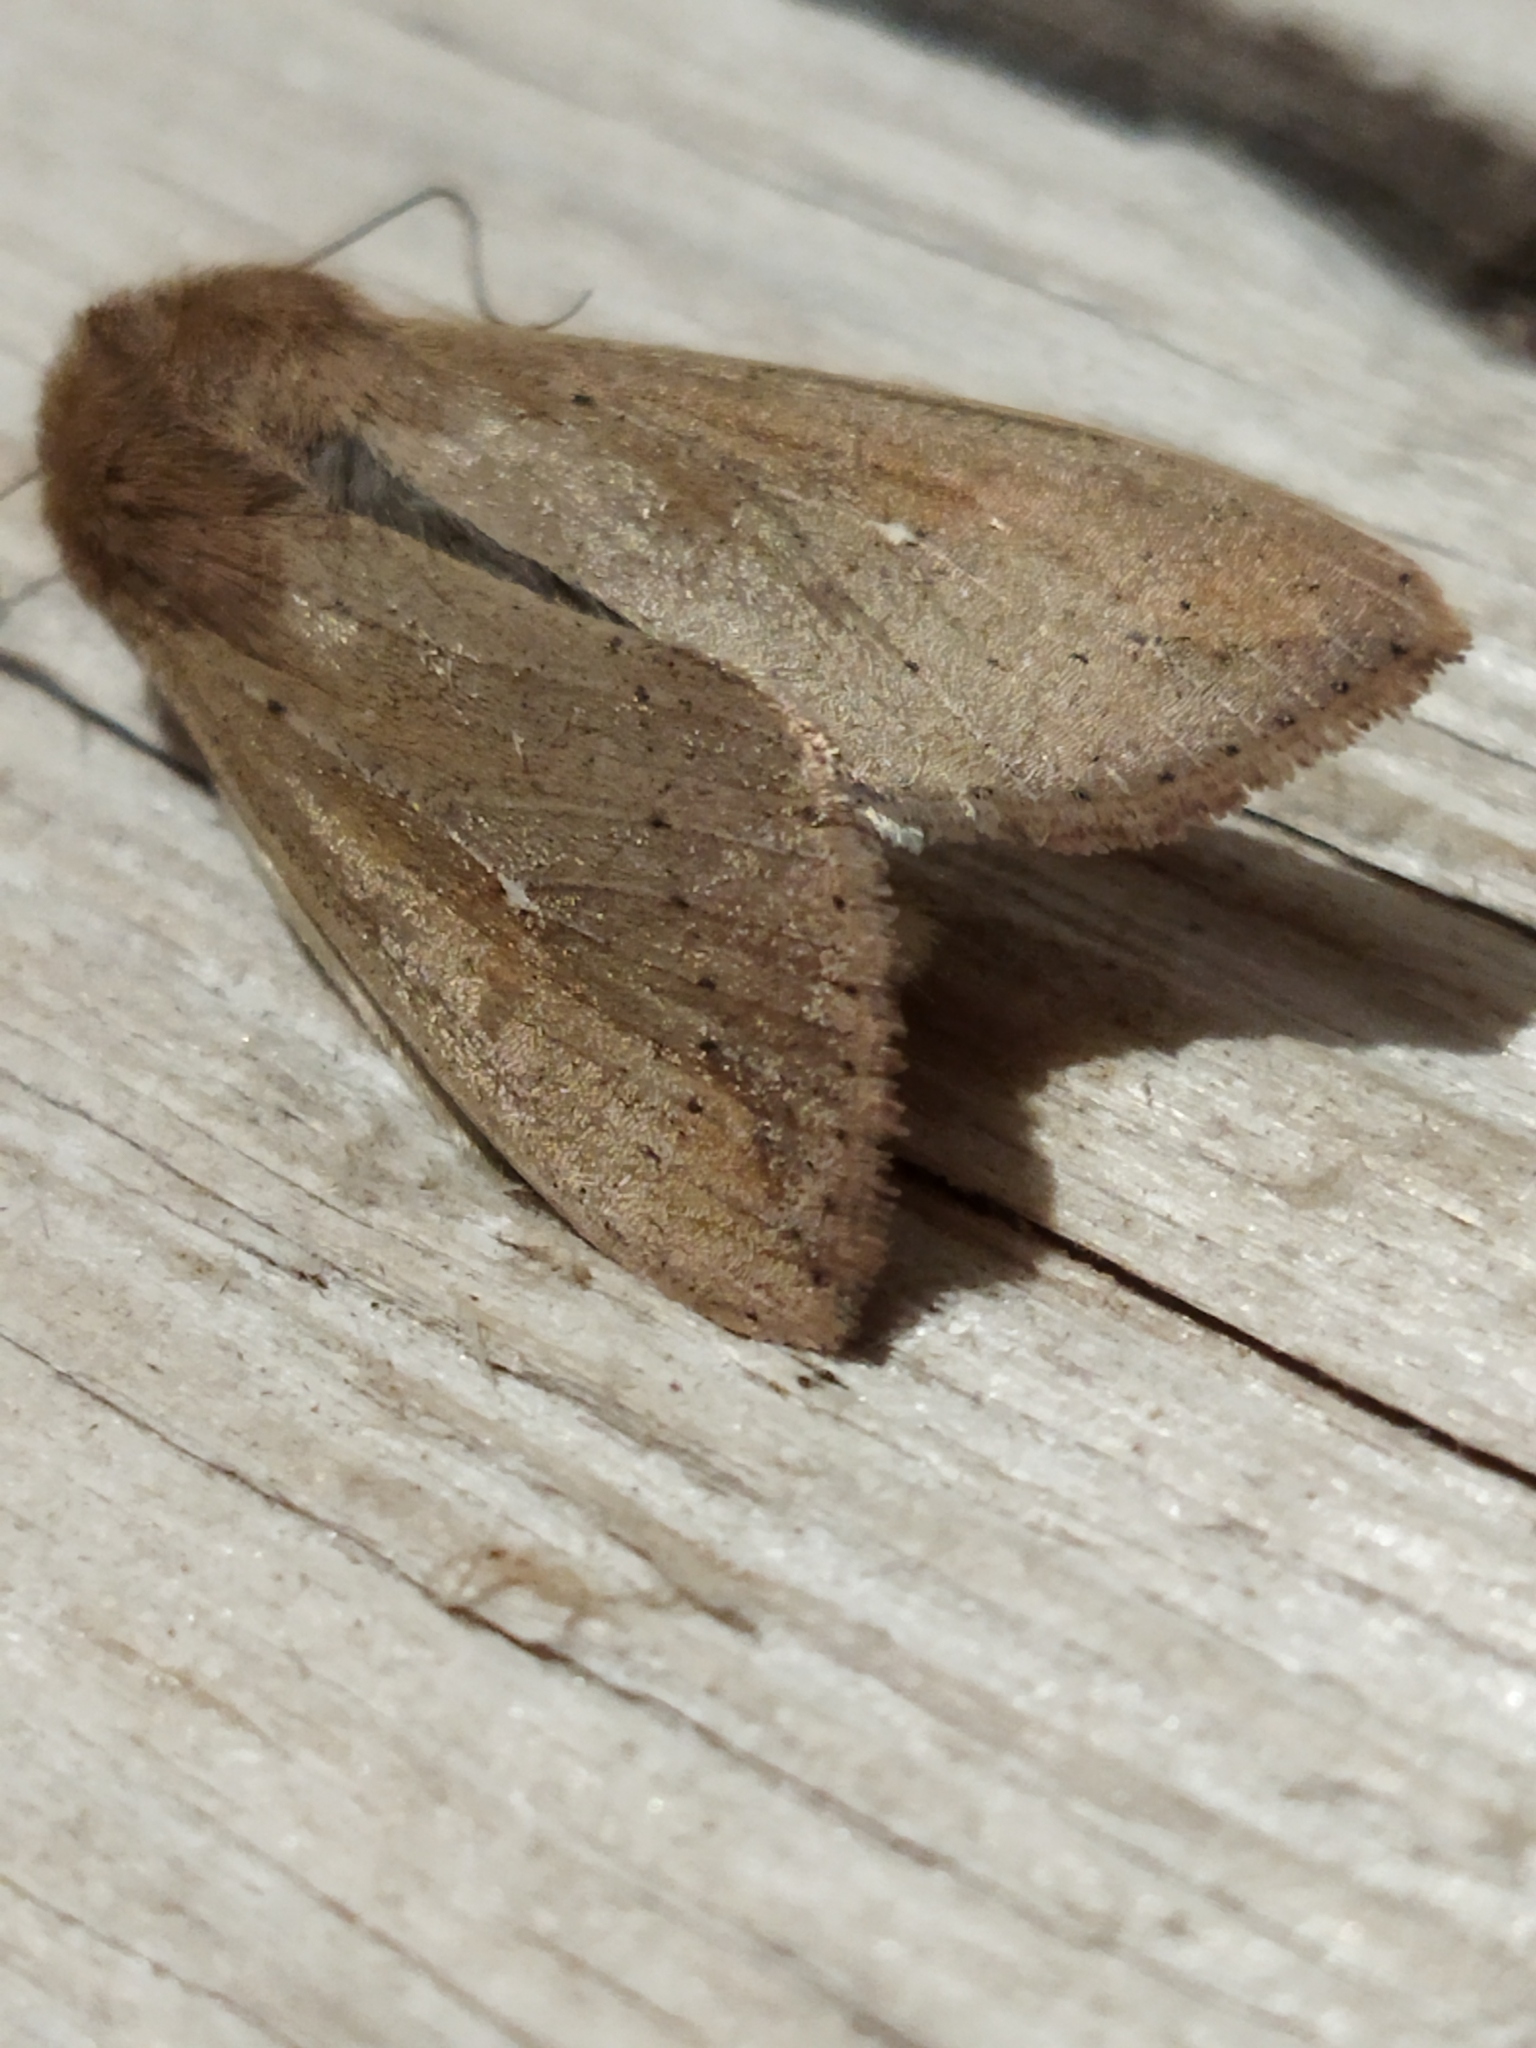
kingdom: Animalia
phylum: Arthropoda
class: Insecta
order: Lepidoptera
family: Noctuidae
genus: Mythimna
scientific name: Mythimna unipuncta
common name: White-speck
